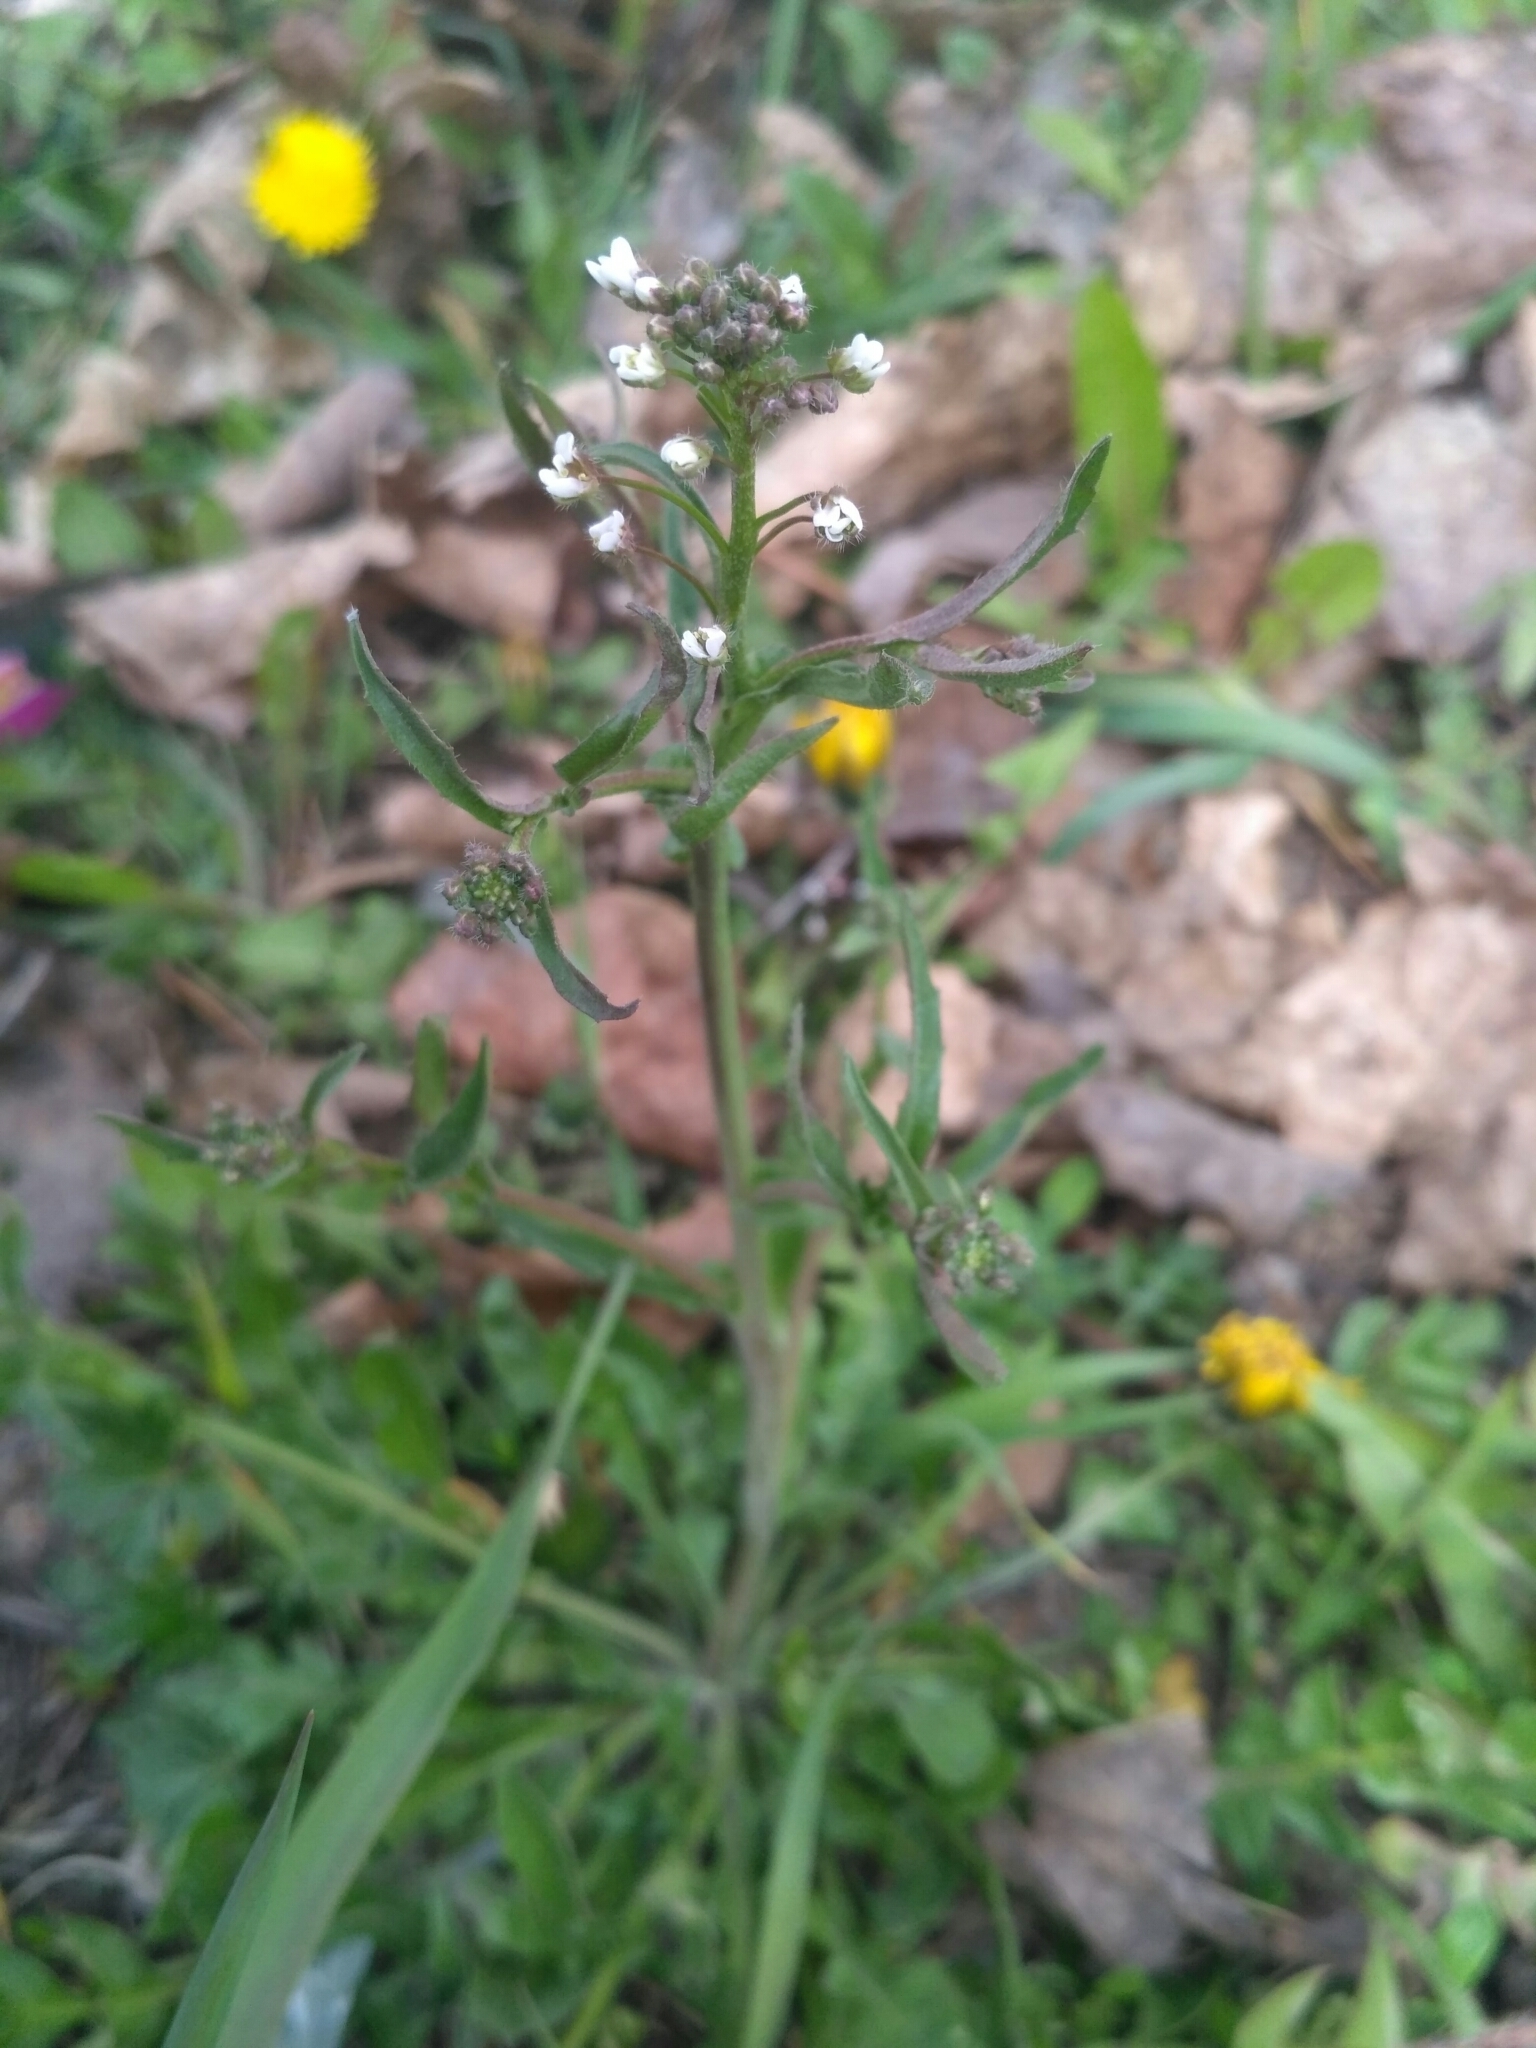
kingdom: Plantae
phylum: Tracheophyta
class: Magnoliopsida
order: Brassicales
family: Brassicaceae
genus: Capsella
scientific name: Capsella bursa-pastoris
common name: Shepherd's purse
